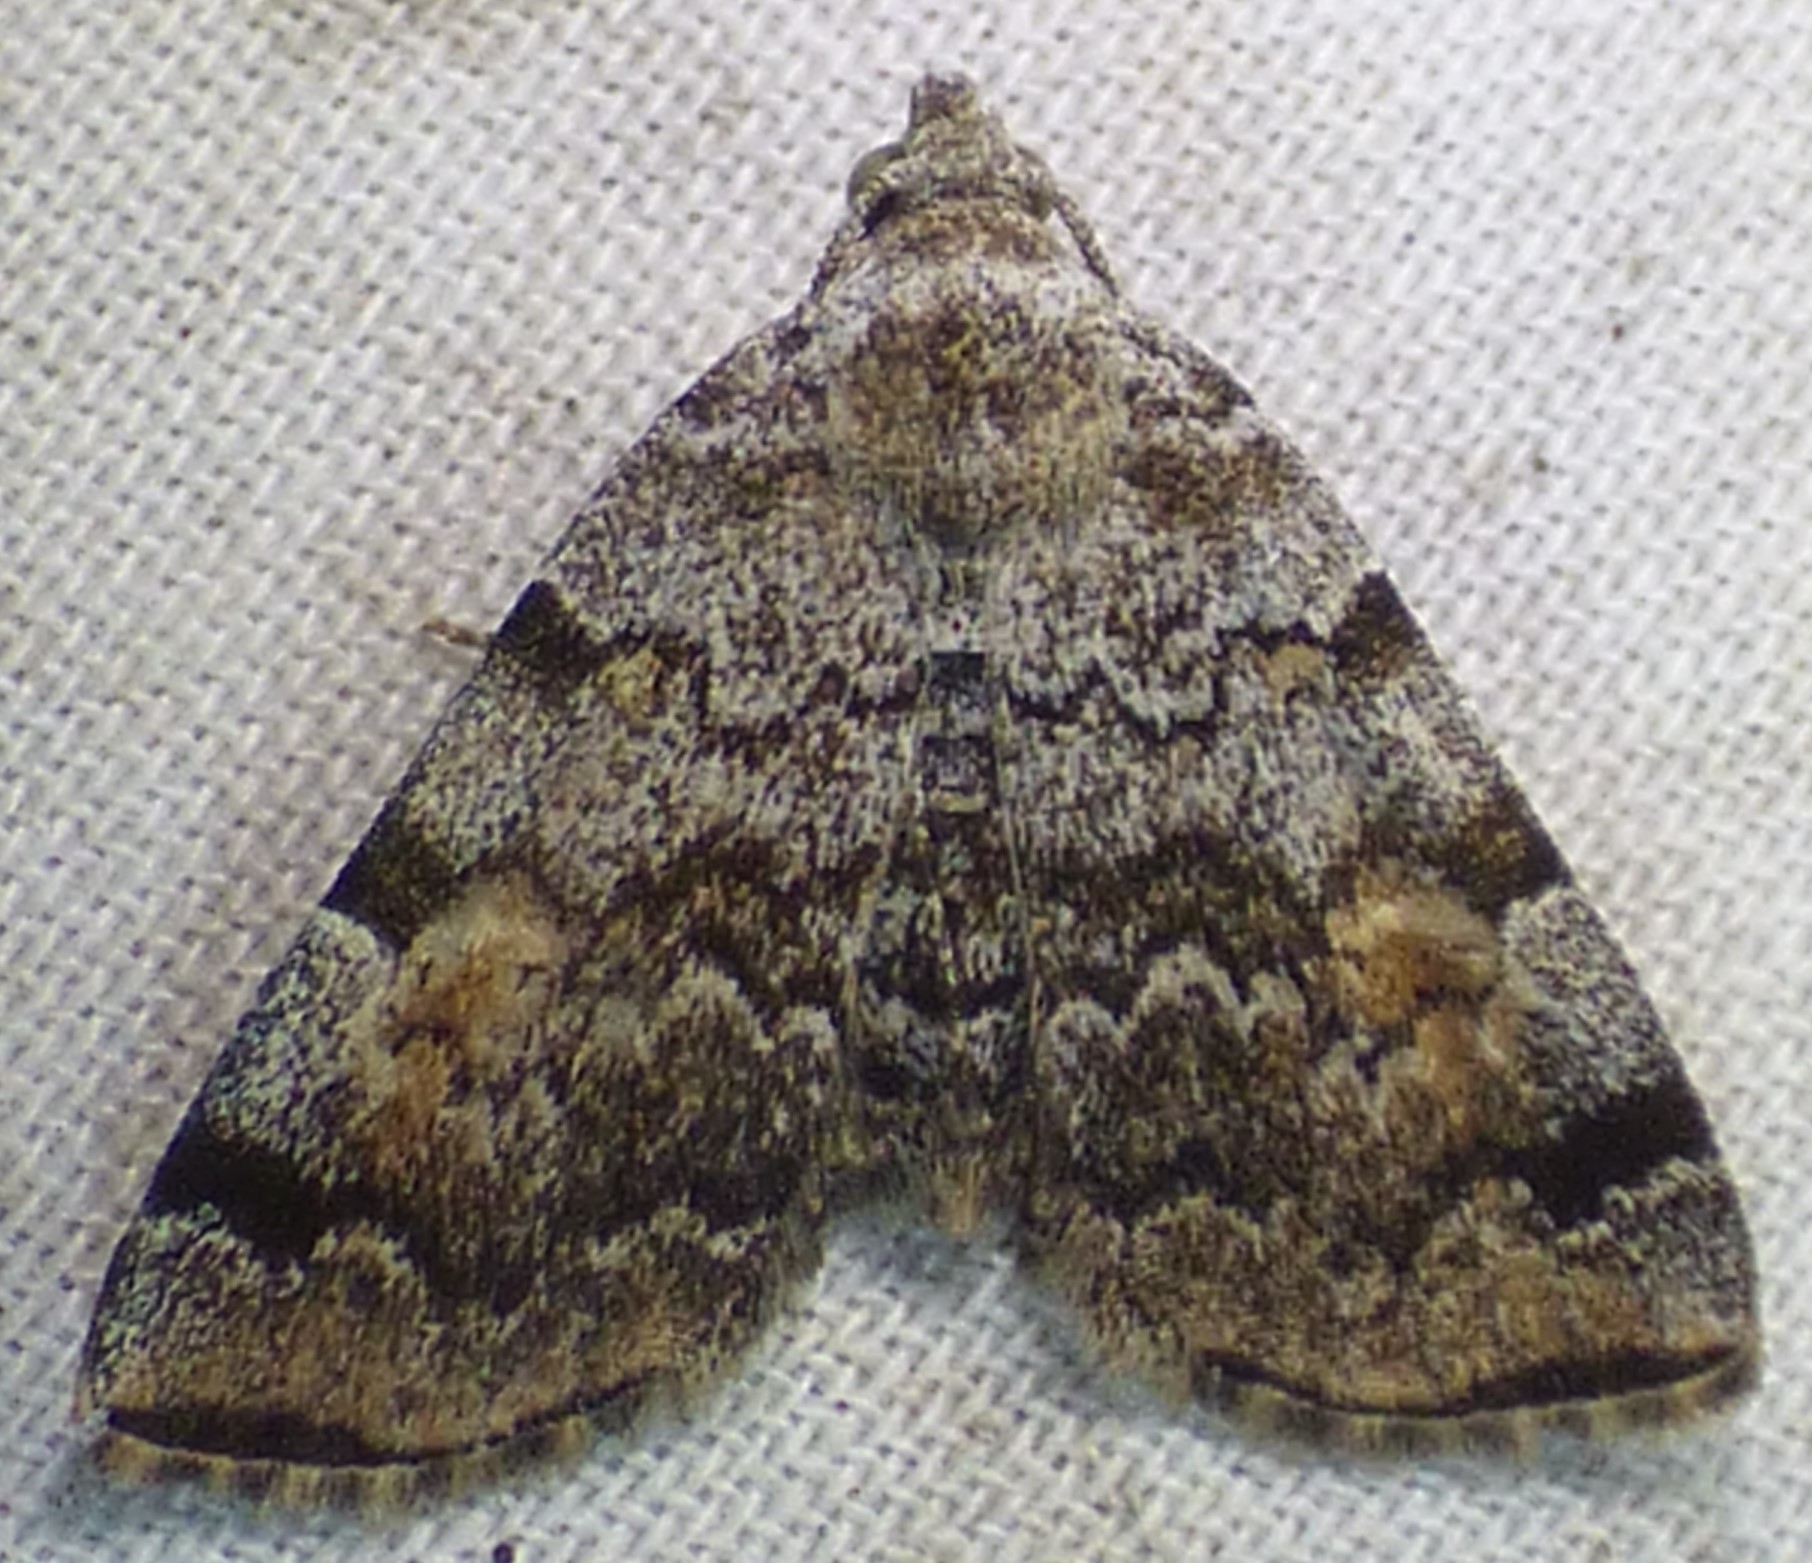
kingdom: Animalia
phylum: Arthropoda
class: Insecta
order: Lepidoptera
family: Erebidae
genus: Idia
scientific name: Idia americalis
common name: American idia moth
